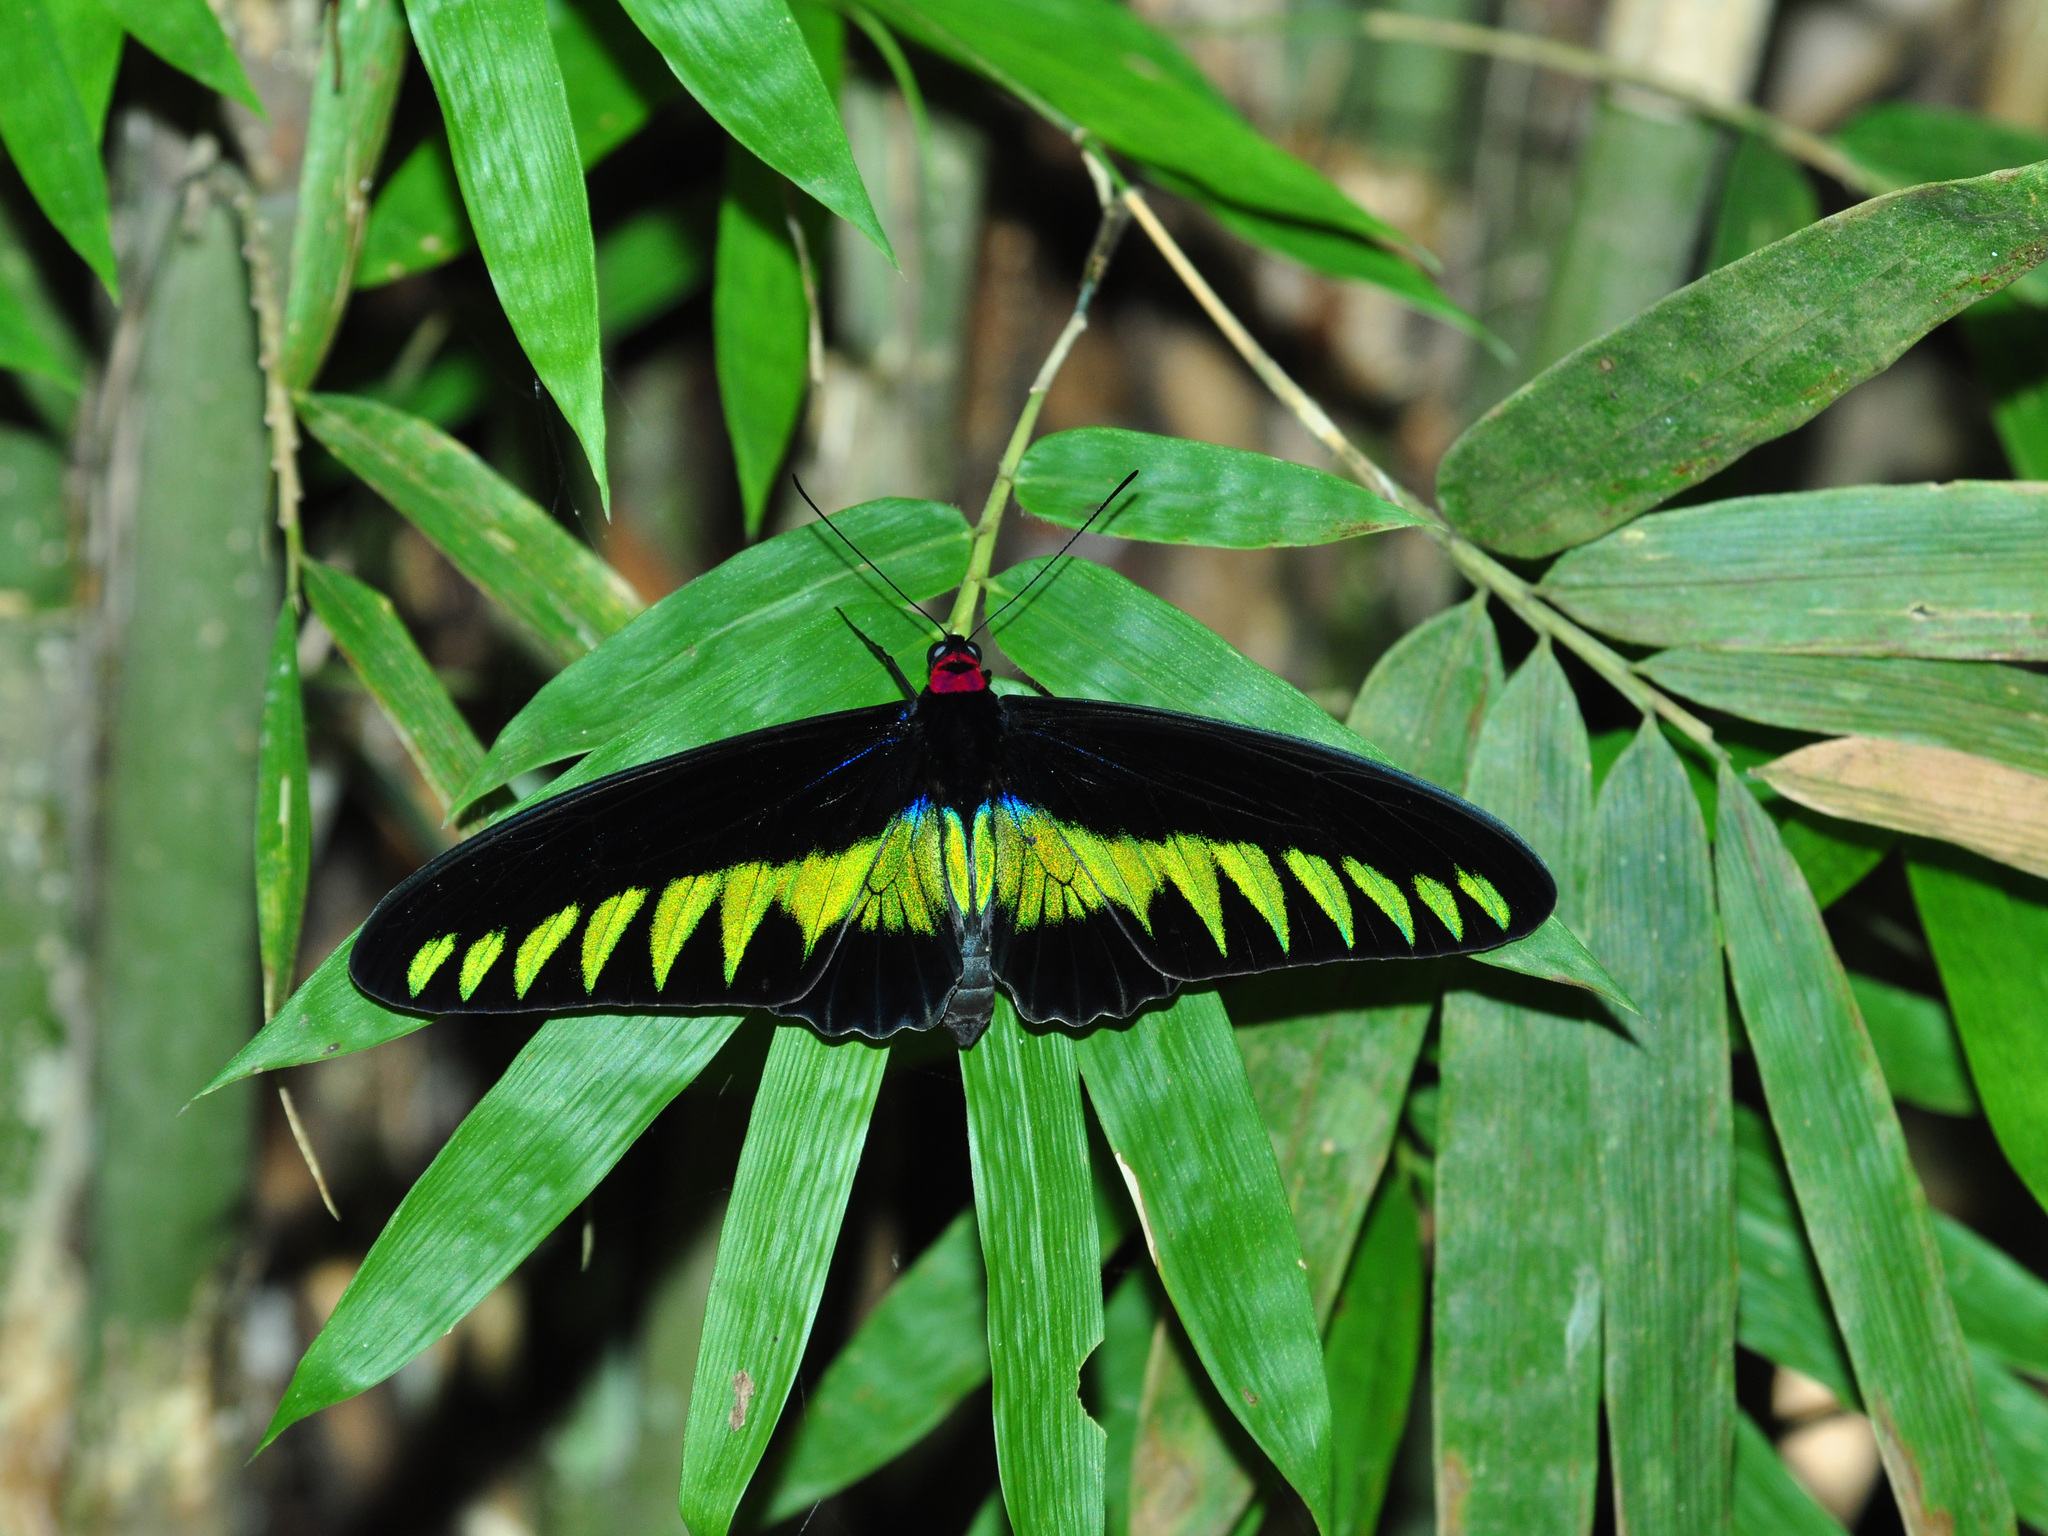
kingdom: Animalia
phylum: Arthropoda
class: Insecta
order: Lepidoptera
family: Papilionidae
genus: Trogonoptera
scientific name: Trogonoptera brookiana
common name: Raja brooke's birdwing
